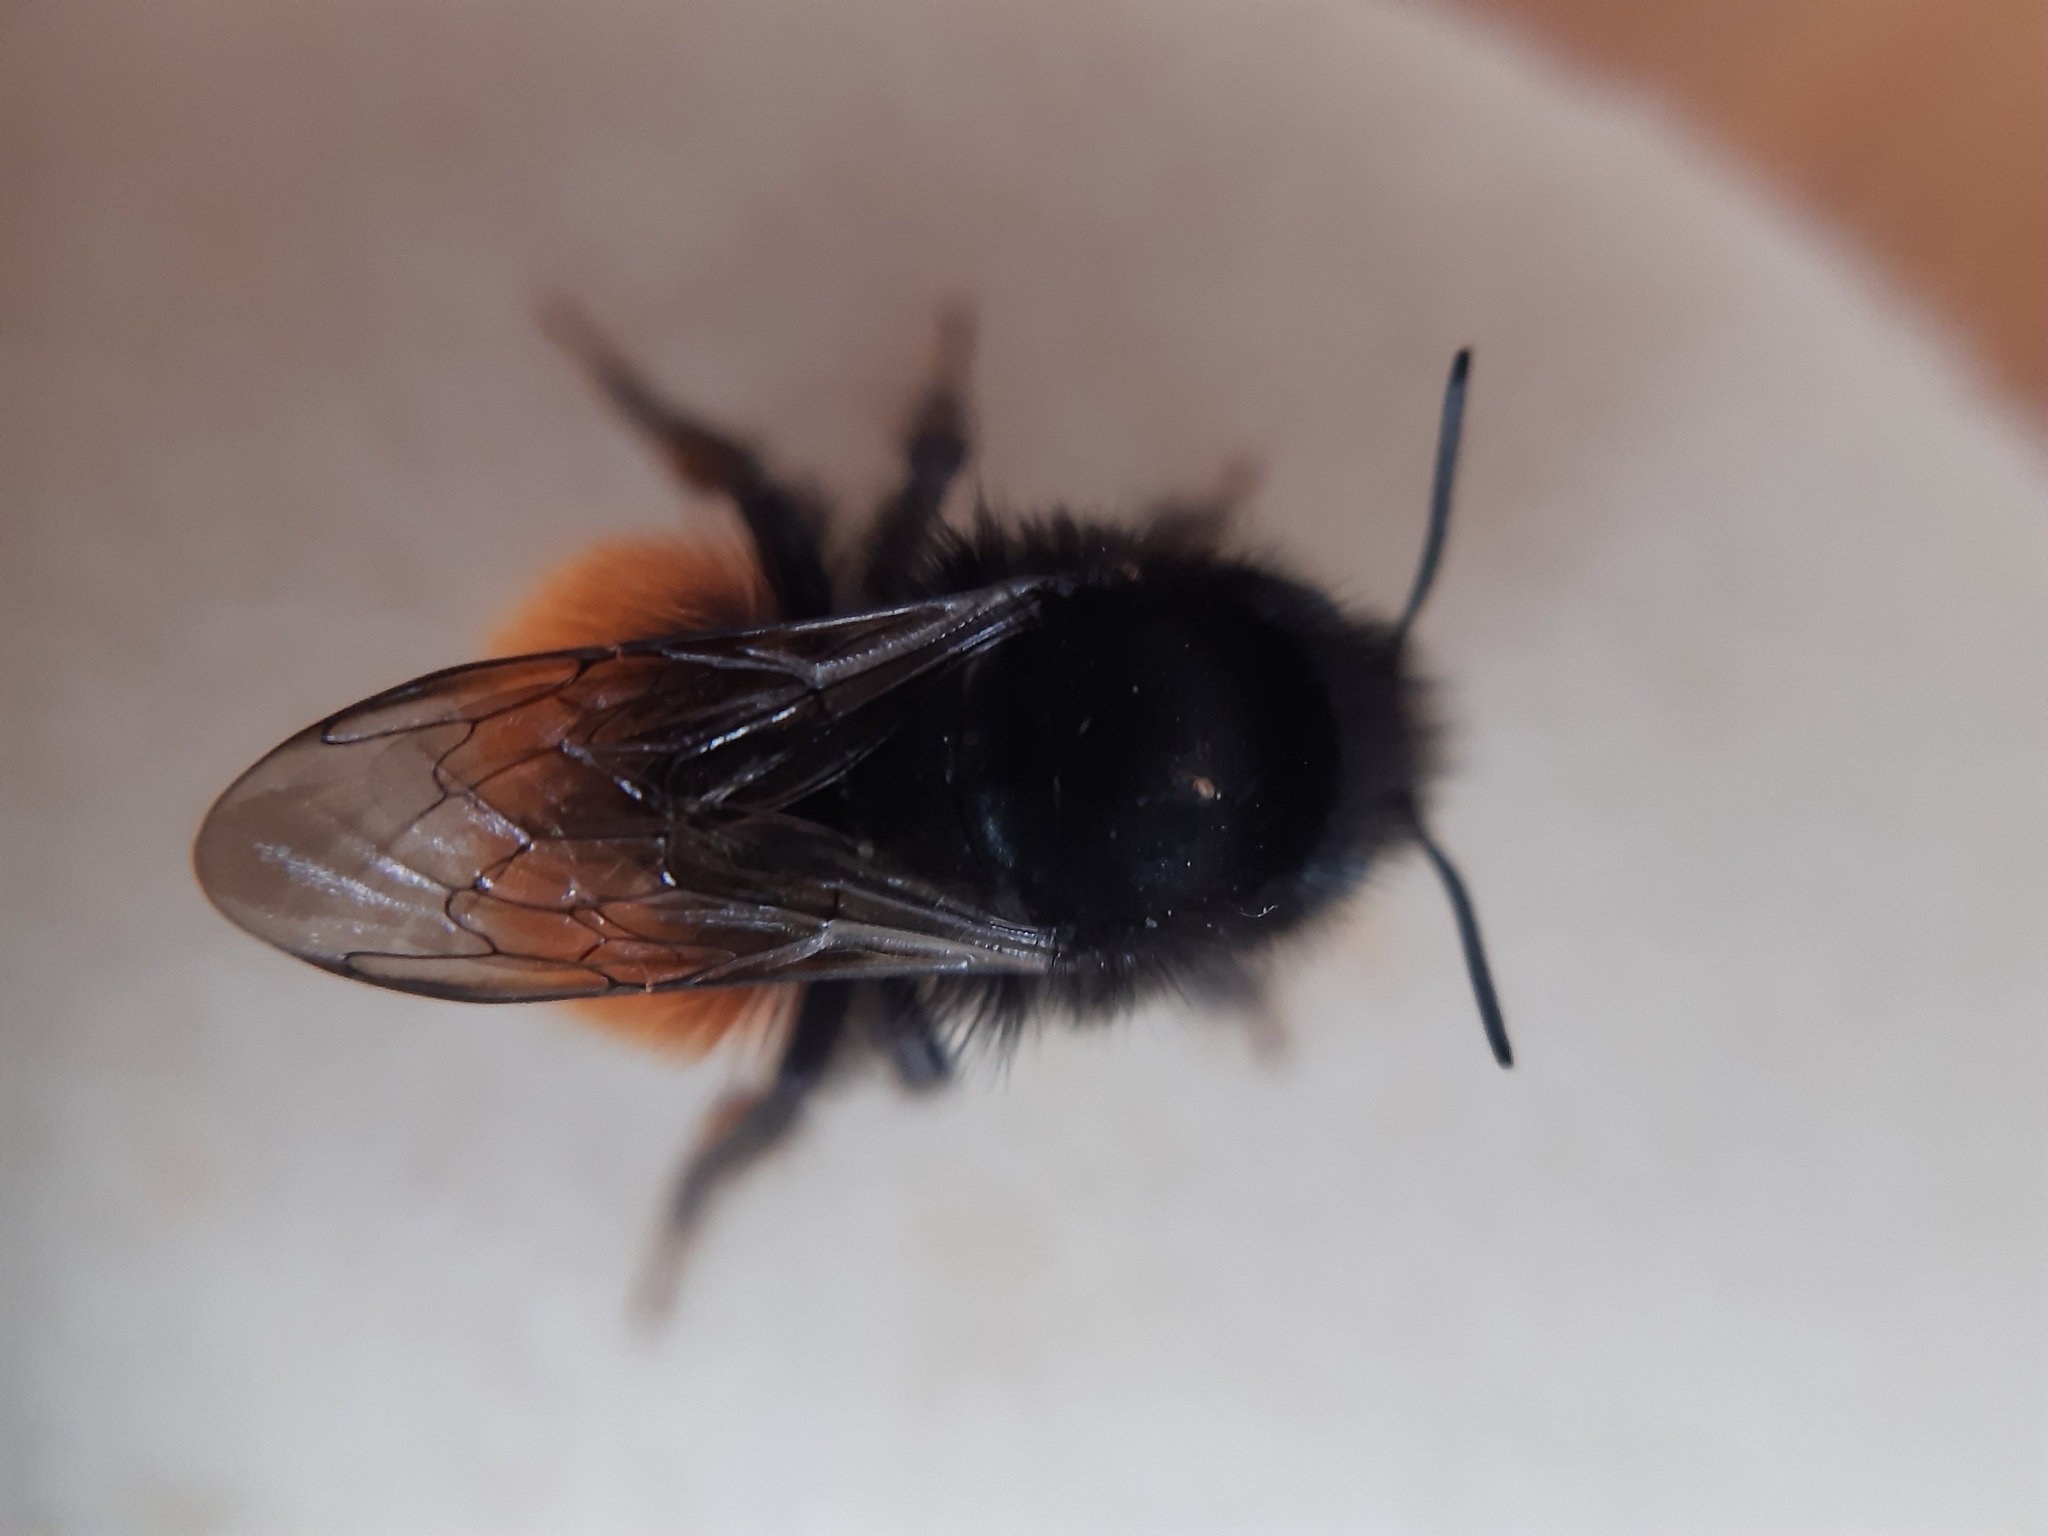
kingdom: Animalia
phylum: Arthropoda
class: Insecta
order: Hymenoptera
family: Megachilidae
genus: Osmia
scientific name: Osmia cornuta
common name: Mason bee
